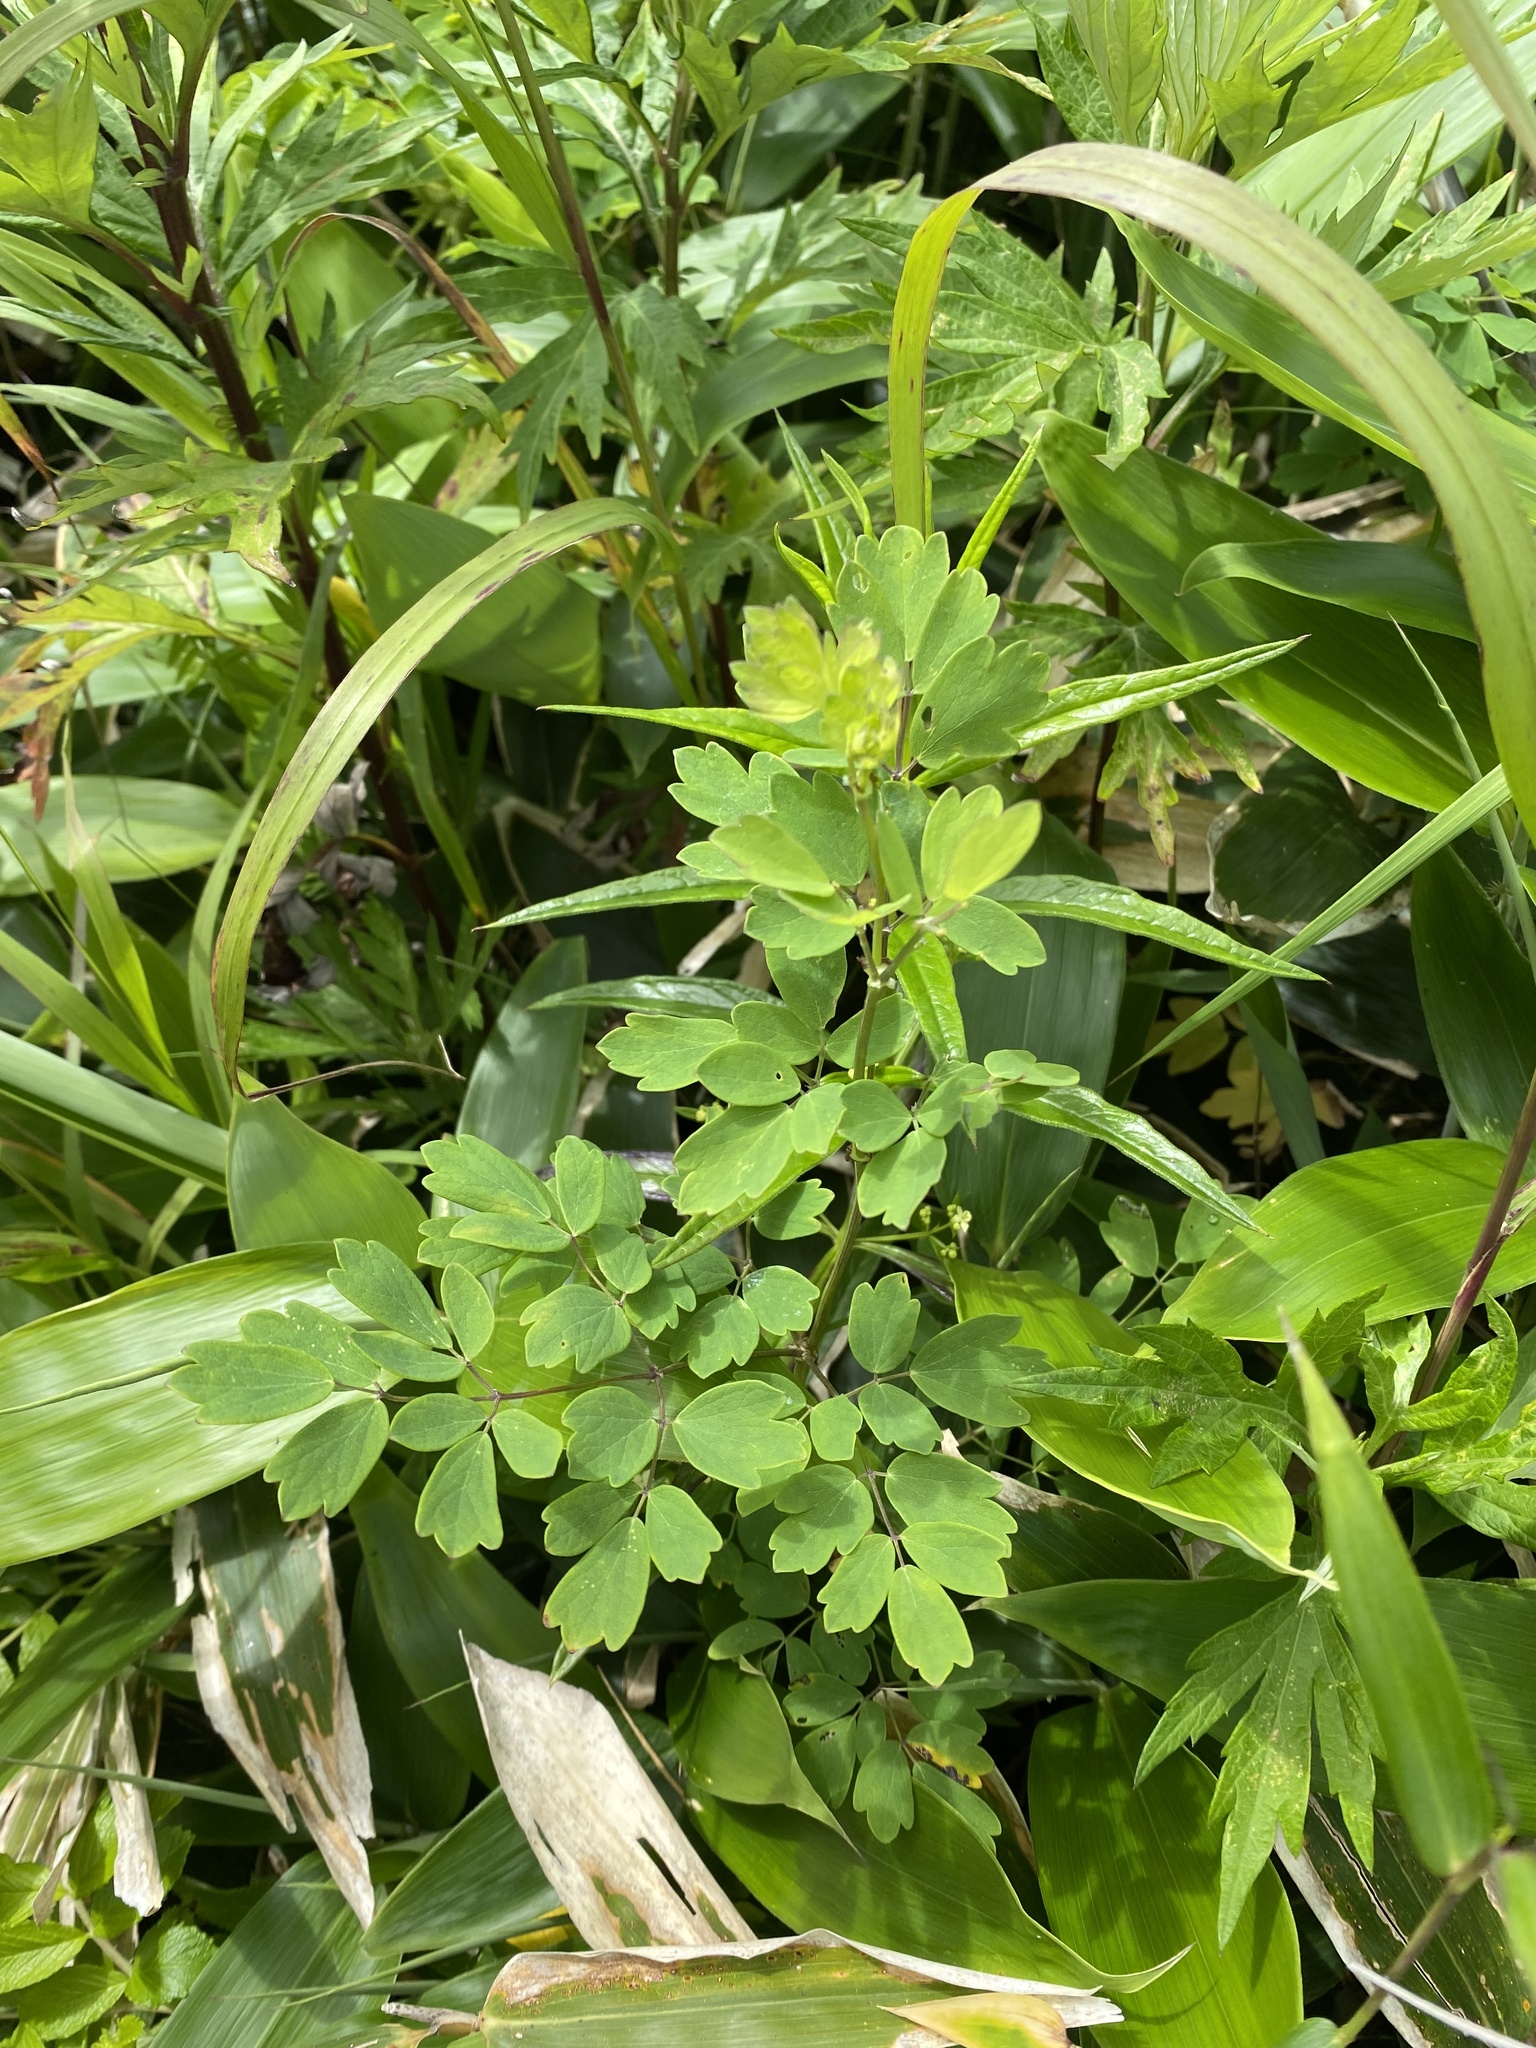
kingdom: Plantae
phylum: Tracheophyta
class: Magnoliopsida
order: Ranunculales
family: Ranunculaceae
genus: Thalictrum
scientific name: Thalictrum minus
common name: Lesser meadow-rue
